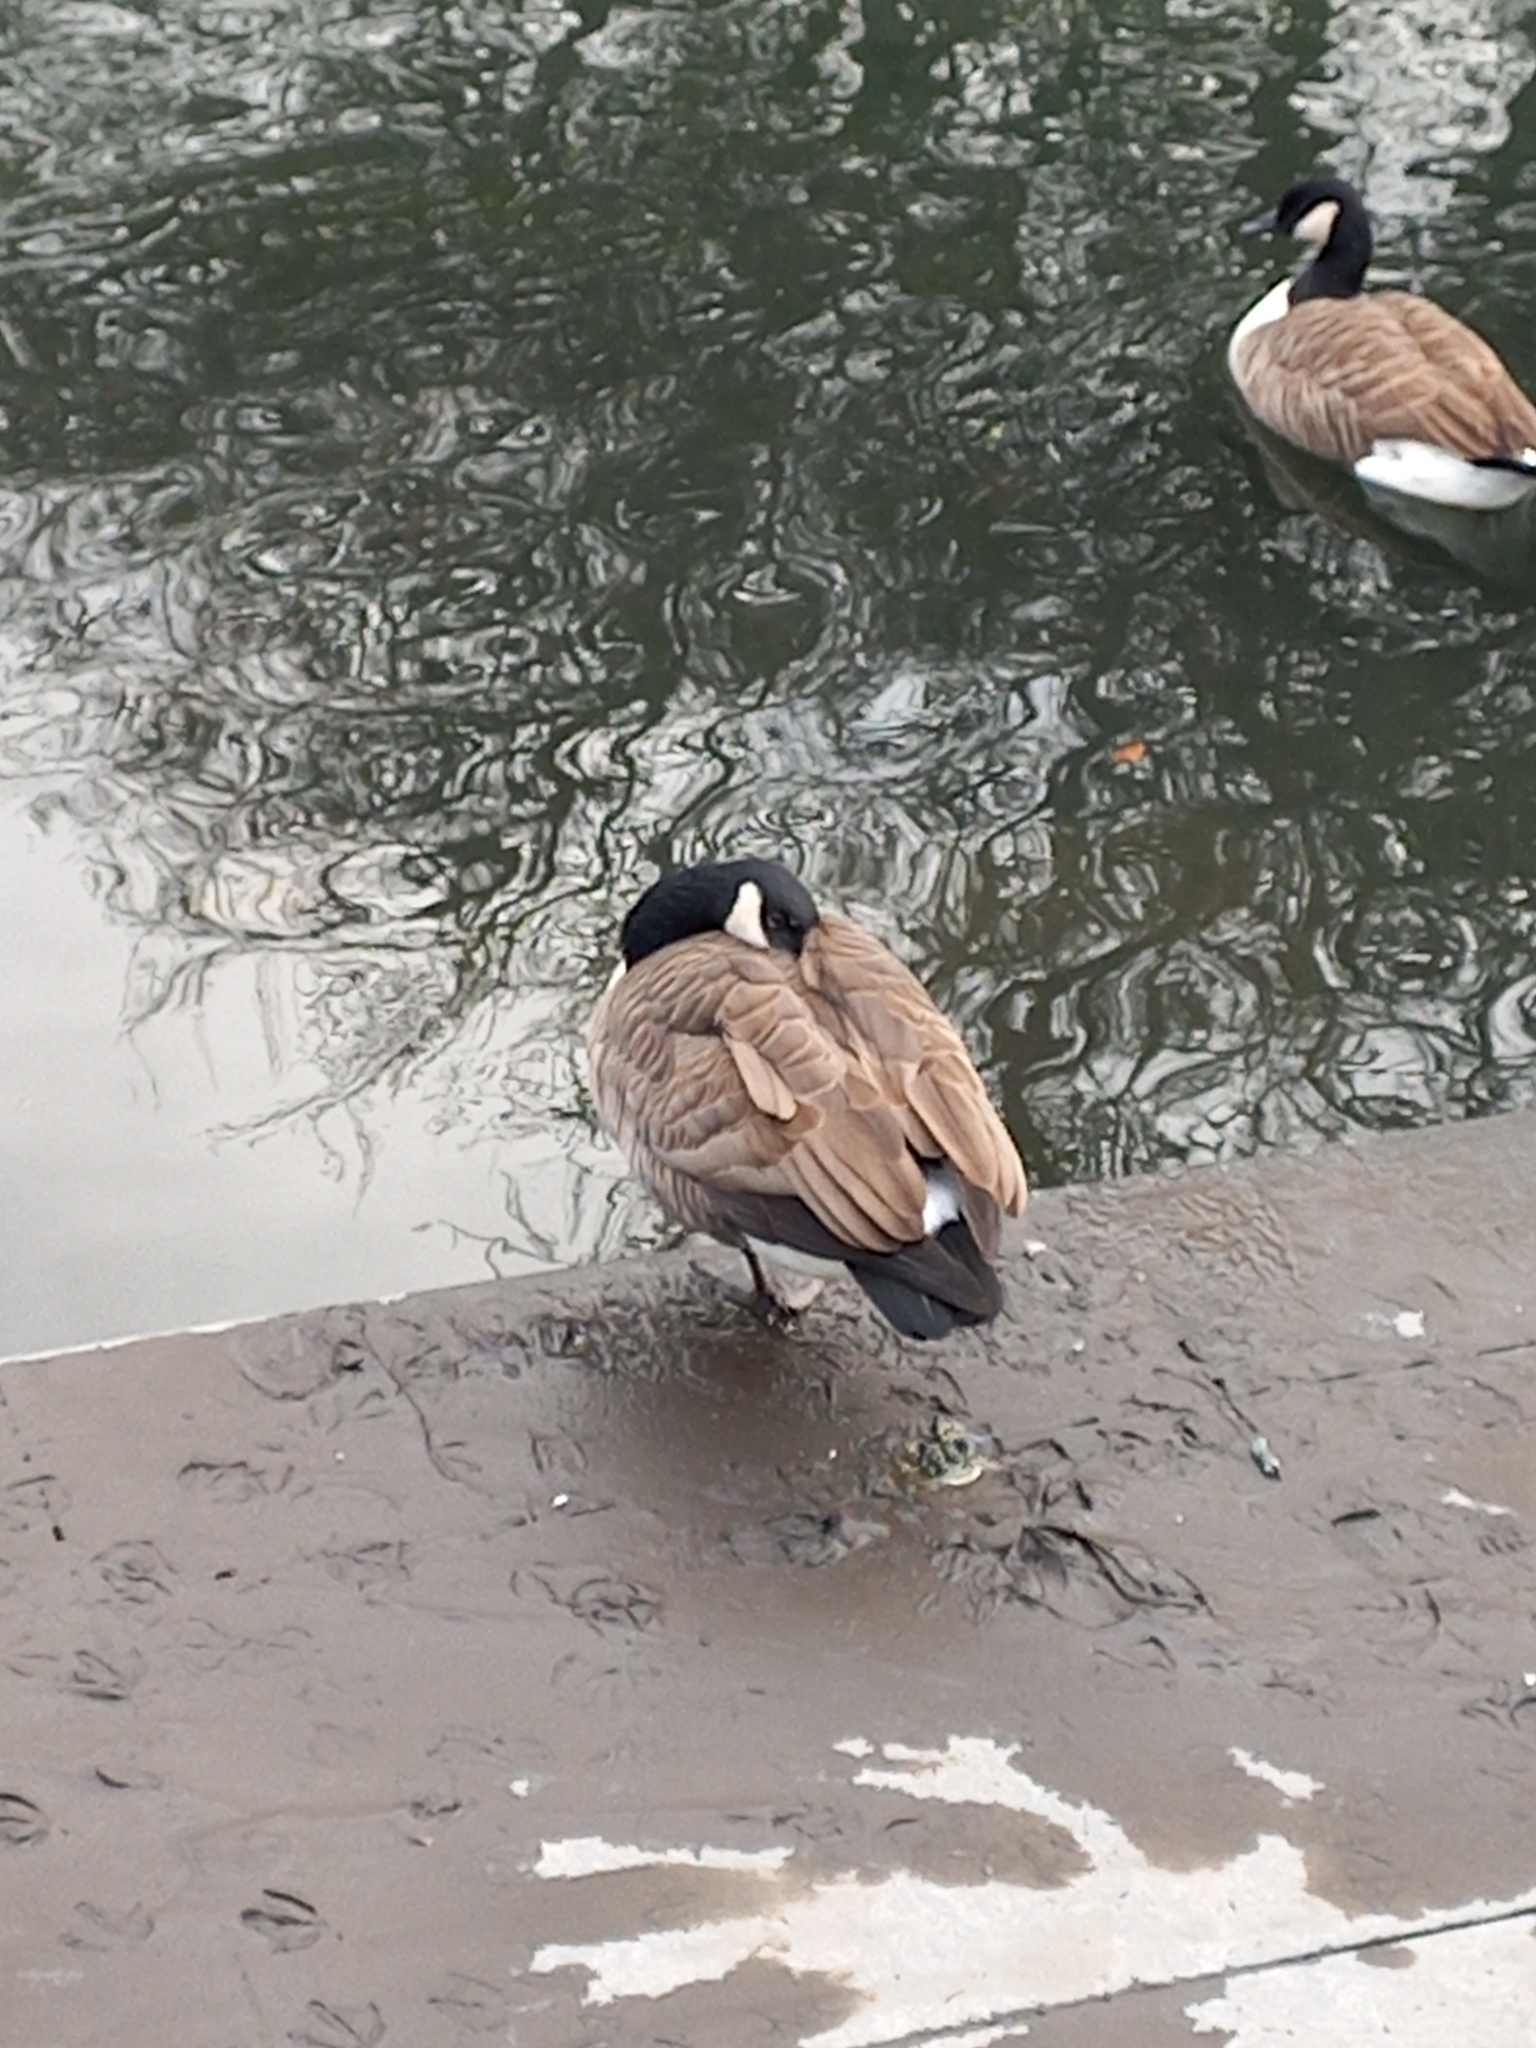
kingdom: Animalia
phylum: Chordata
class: Aves
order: Anseriformes
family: Anatidae
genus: Branta
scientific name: Branta canadensis
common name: Canada goose
